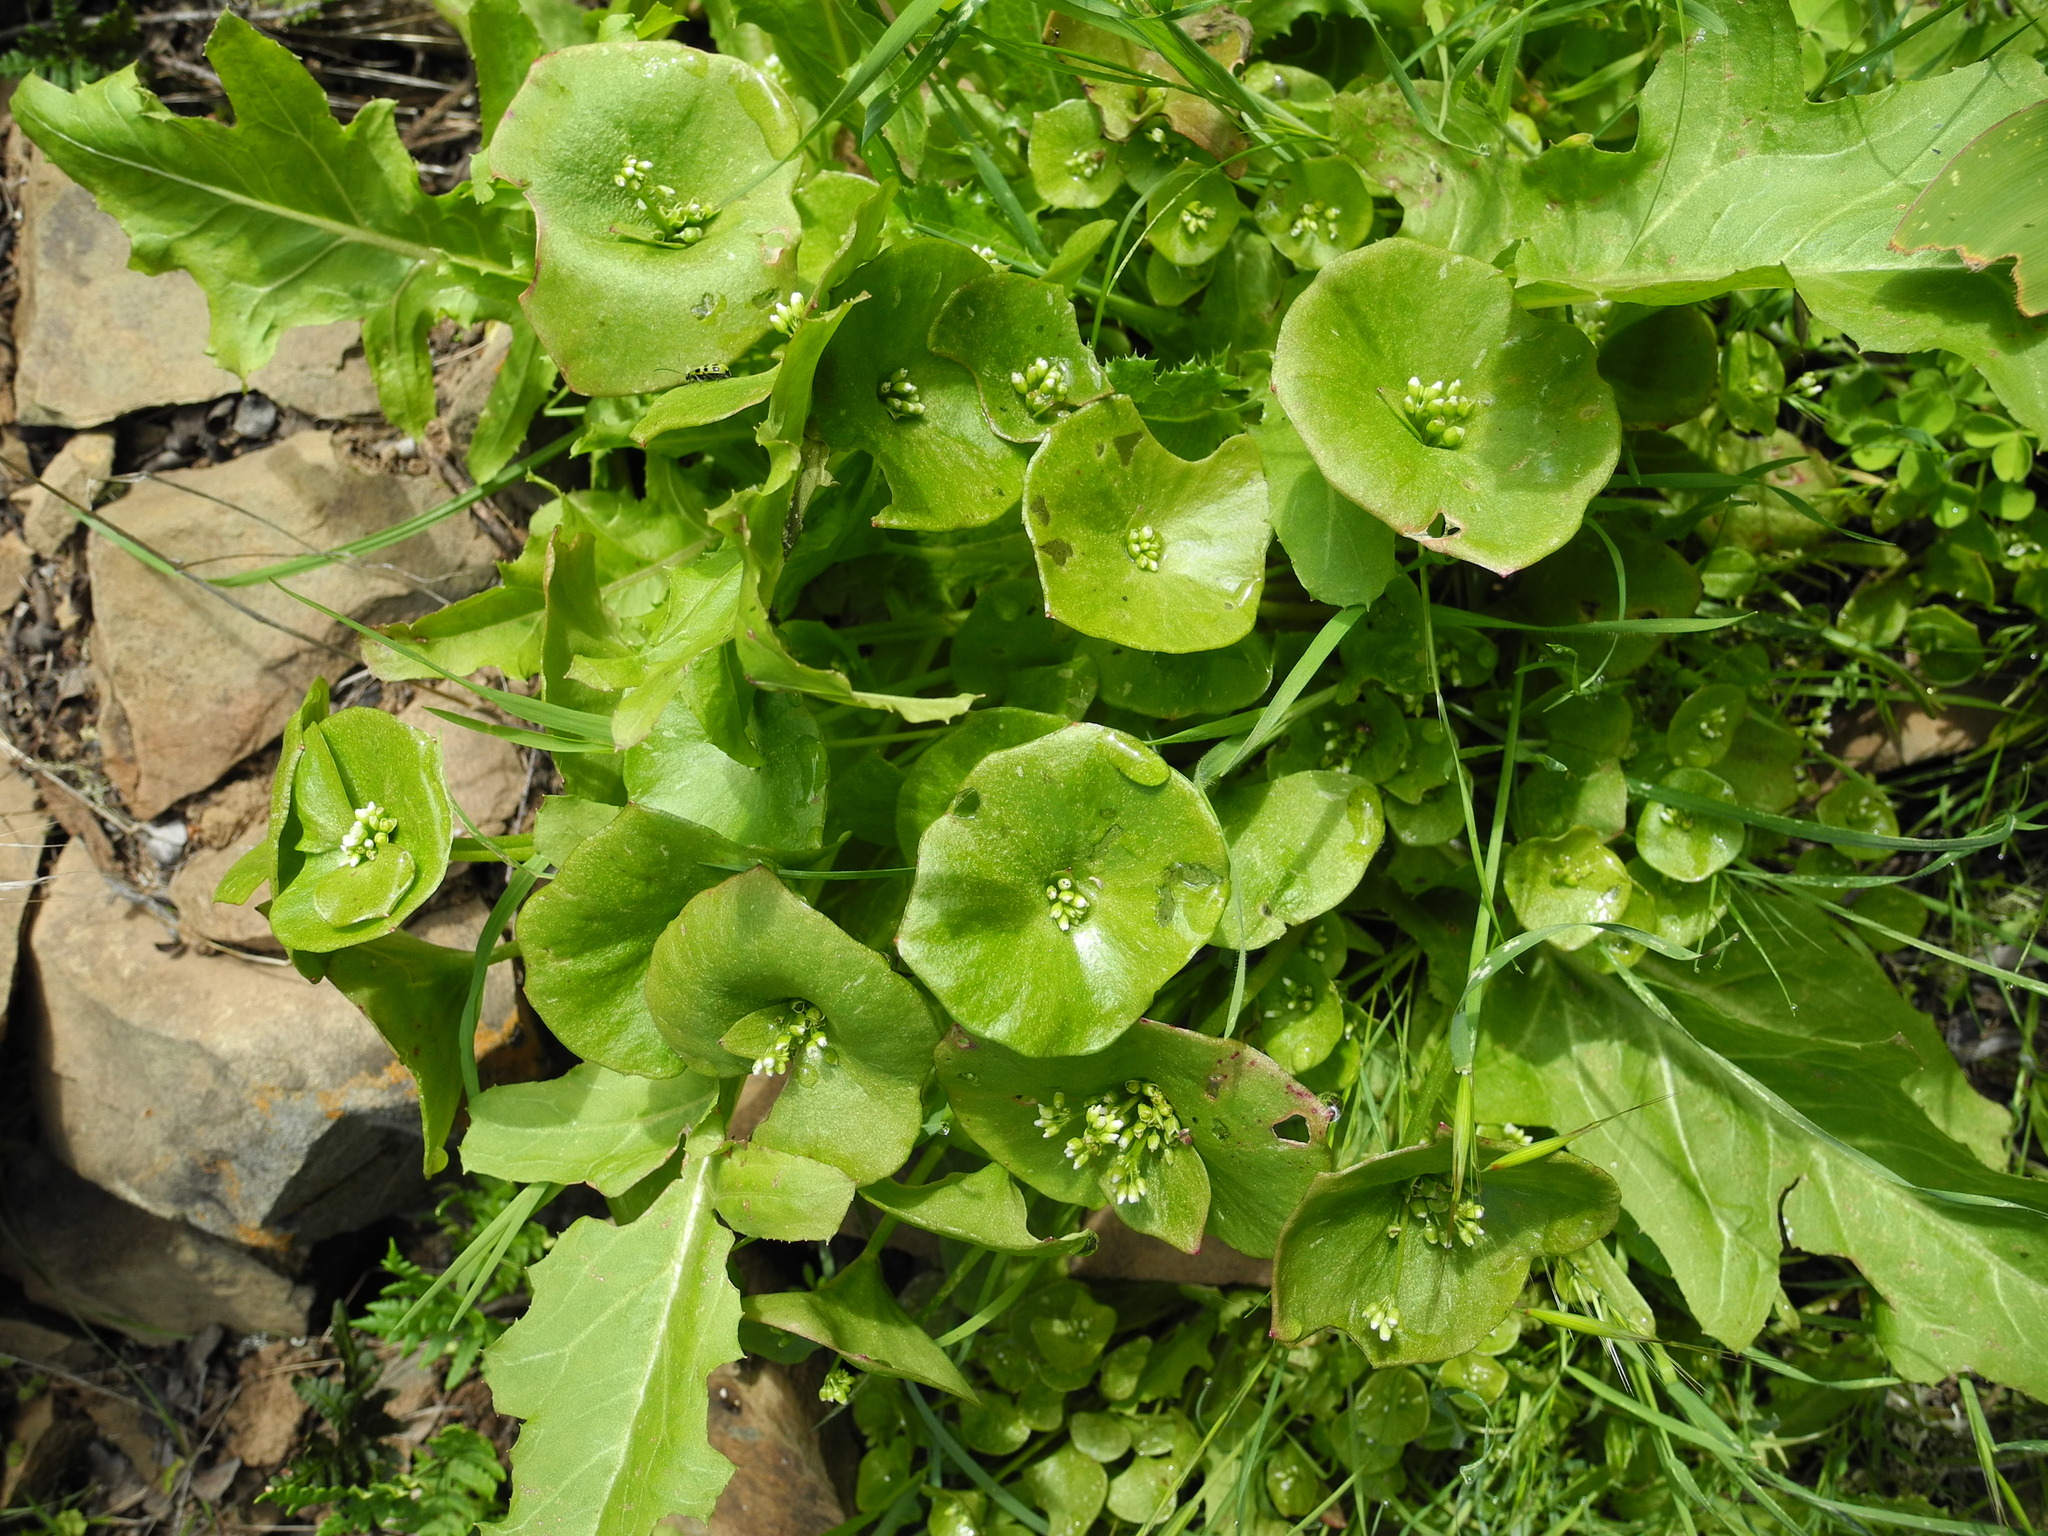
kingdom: Plantae
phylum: Tracheophyta
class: Magnoliopsida
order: Caryophyllales
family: Montiaceae
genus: Claytonia
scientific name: Claytonia perfoliata
